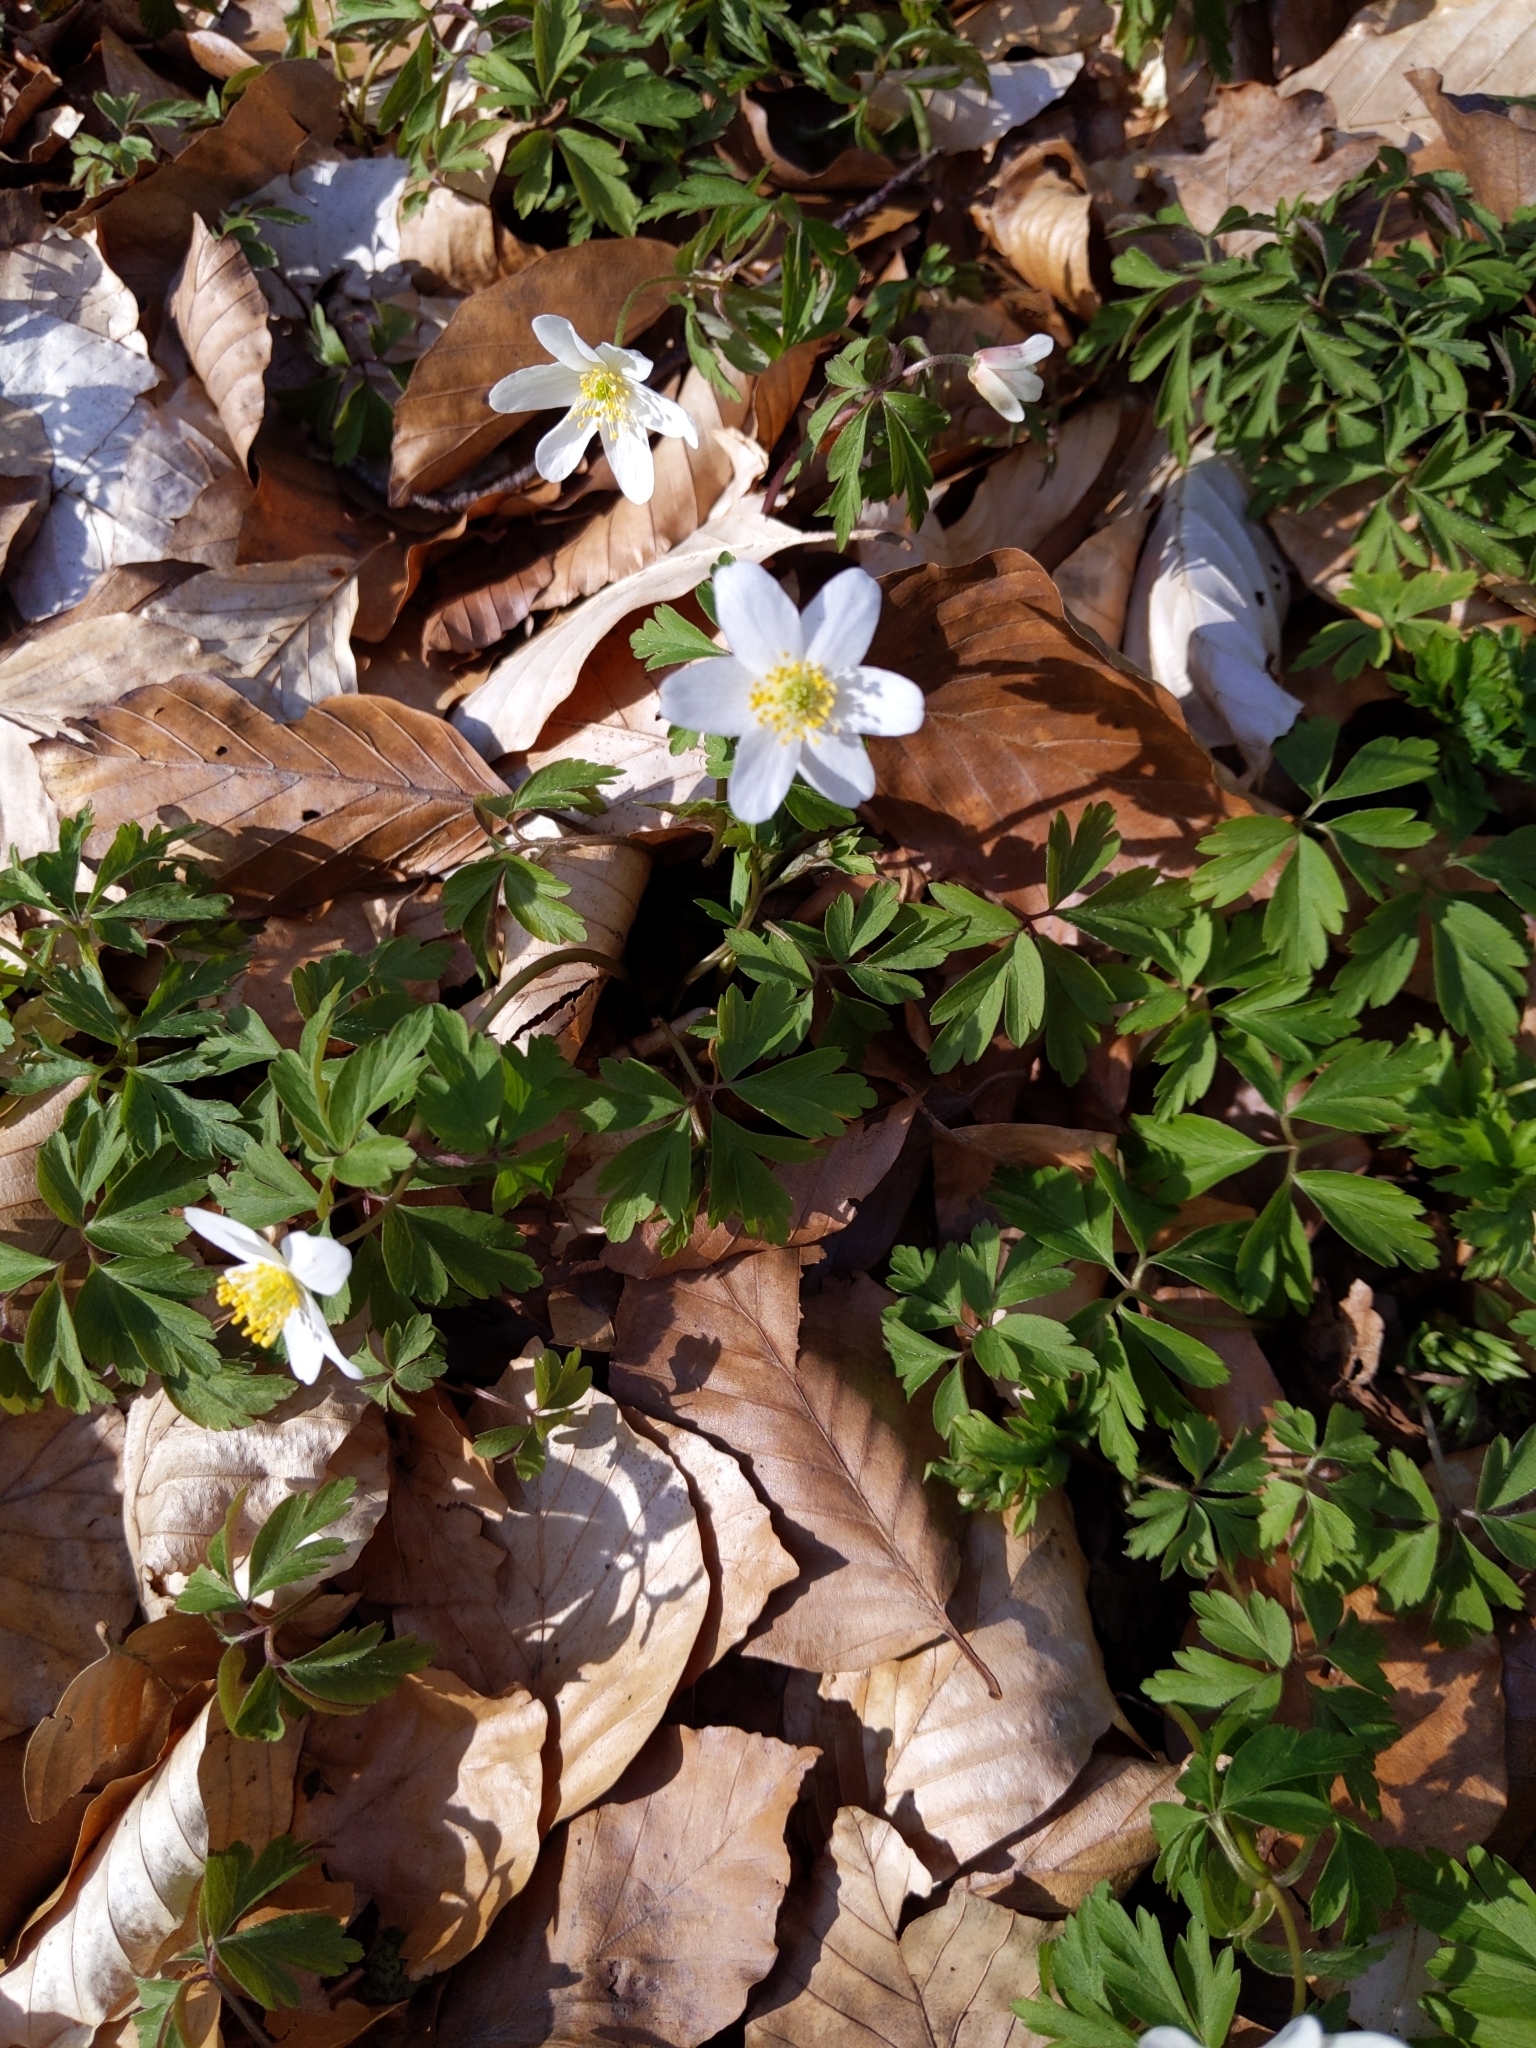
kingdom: Plantae
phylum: Tracheophyta
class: Magnoliopsida
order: Ranunculales
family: Ranunculaceae
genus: Anemone
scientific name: Anemone nemorosa
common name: Wood anemone
